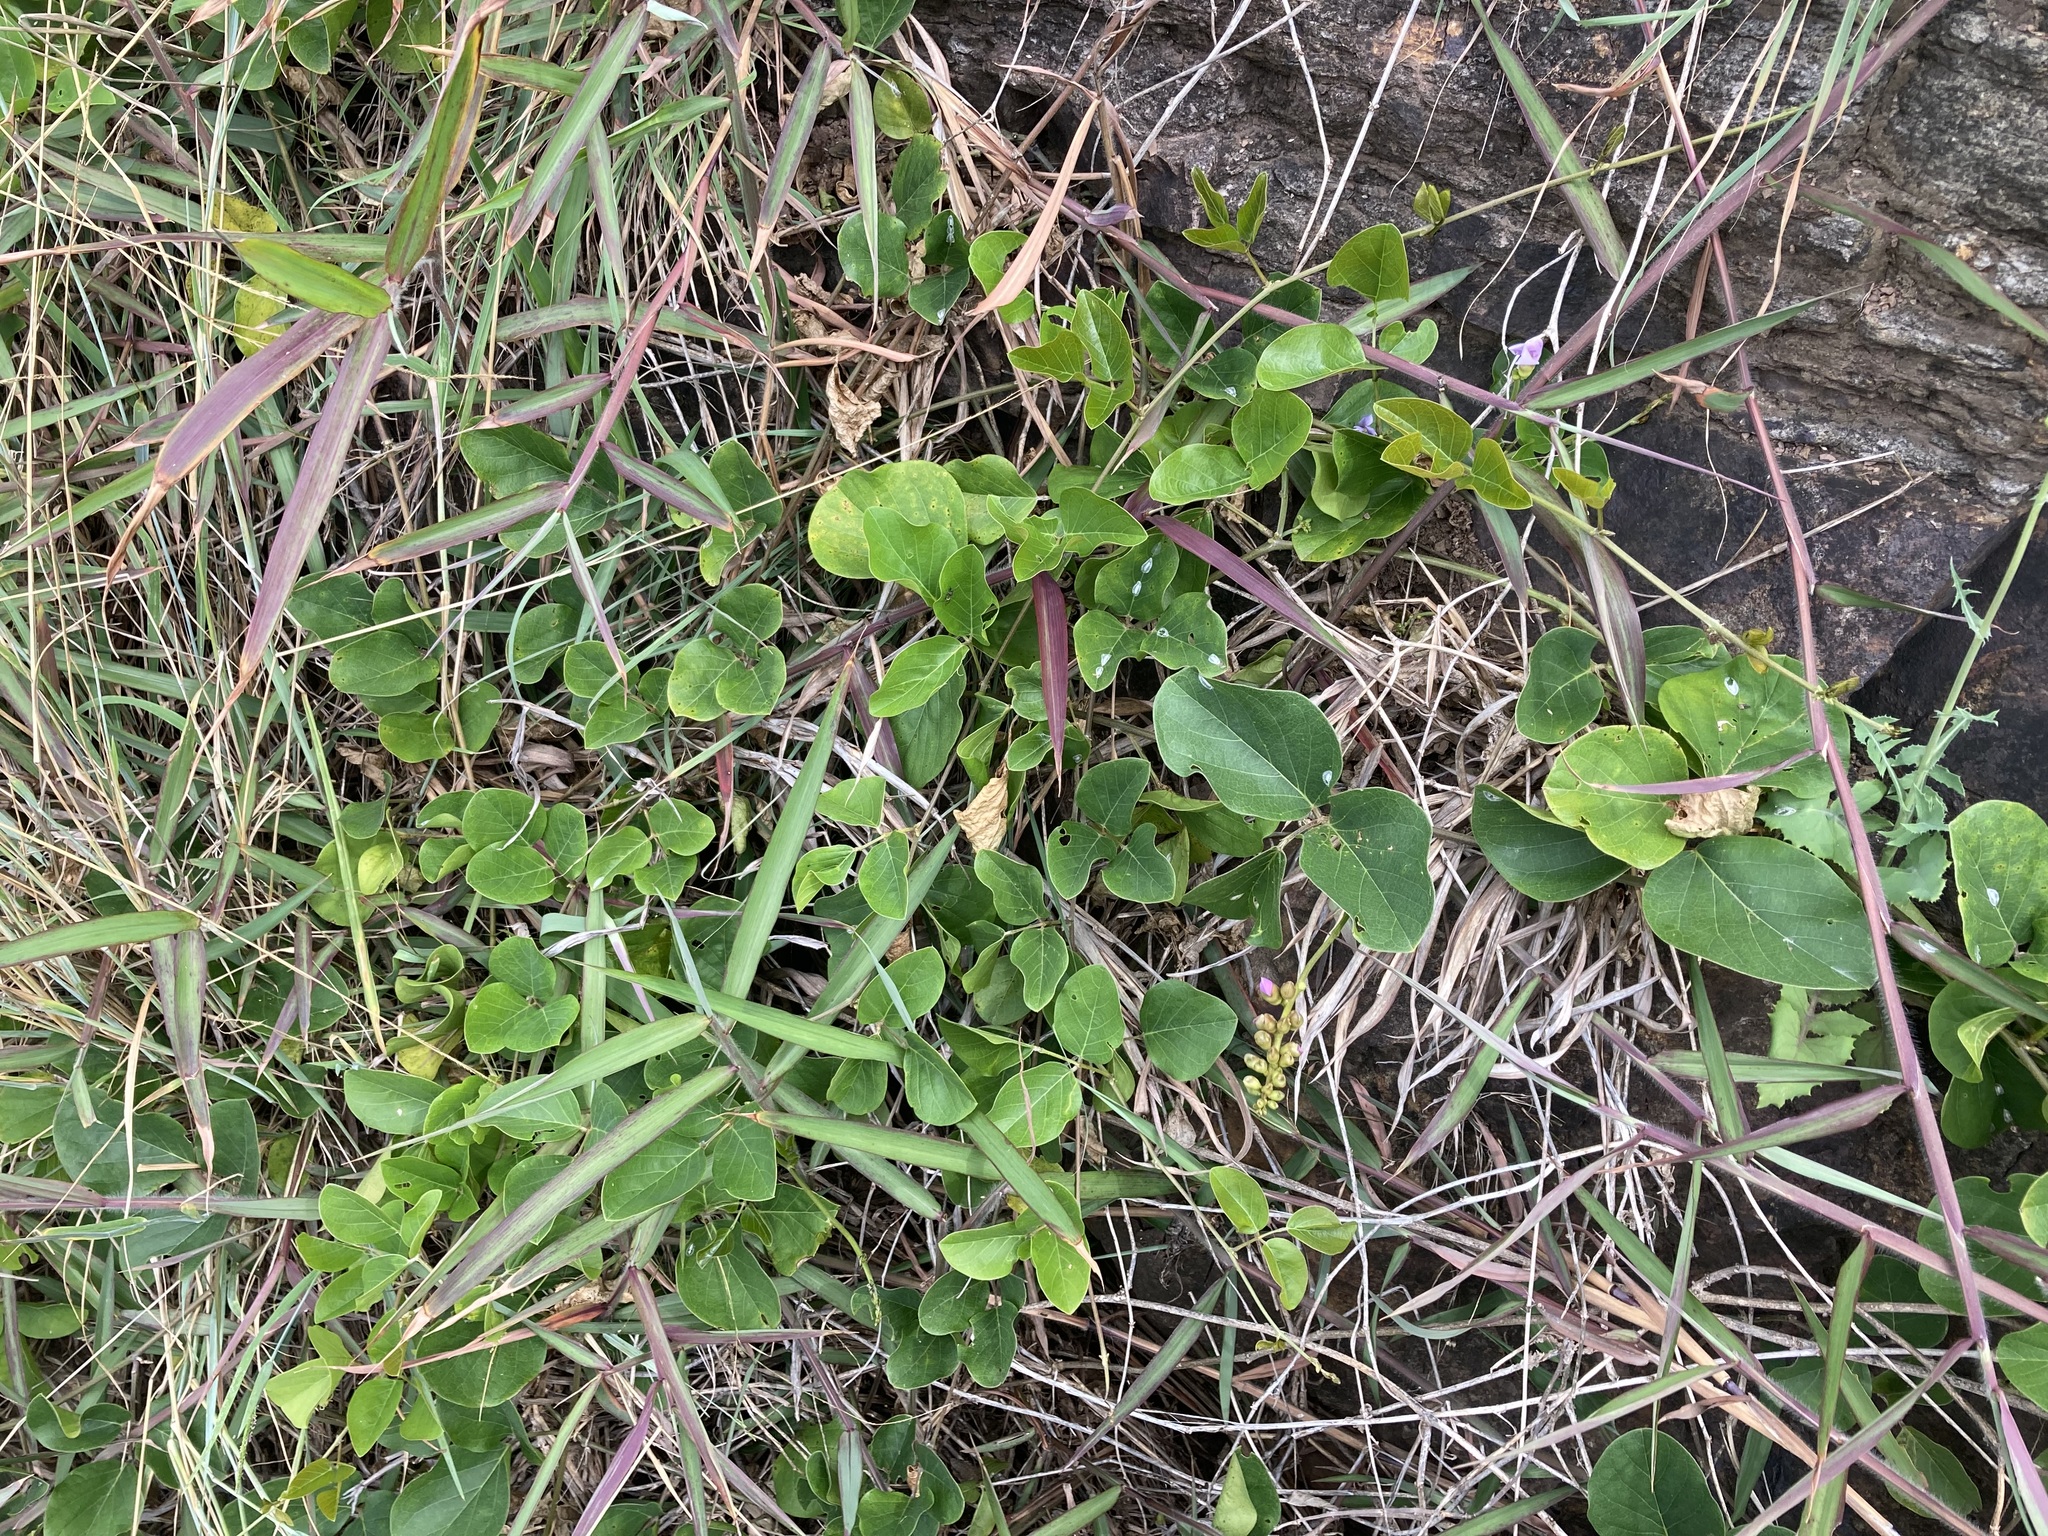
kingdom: Plantae
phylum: Tracheophyta
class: Magnoliopsida
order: Fabales
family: Fabaceae
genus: Canavalia
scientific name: Canavalia rosea
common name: Beach-bean
